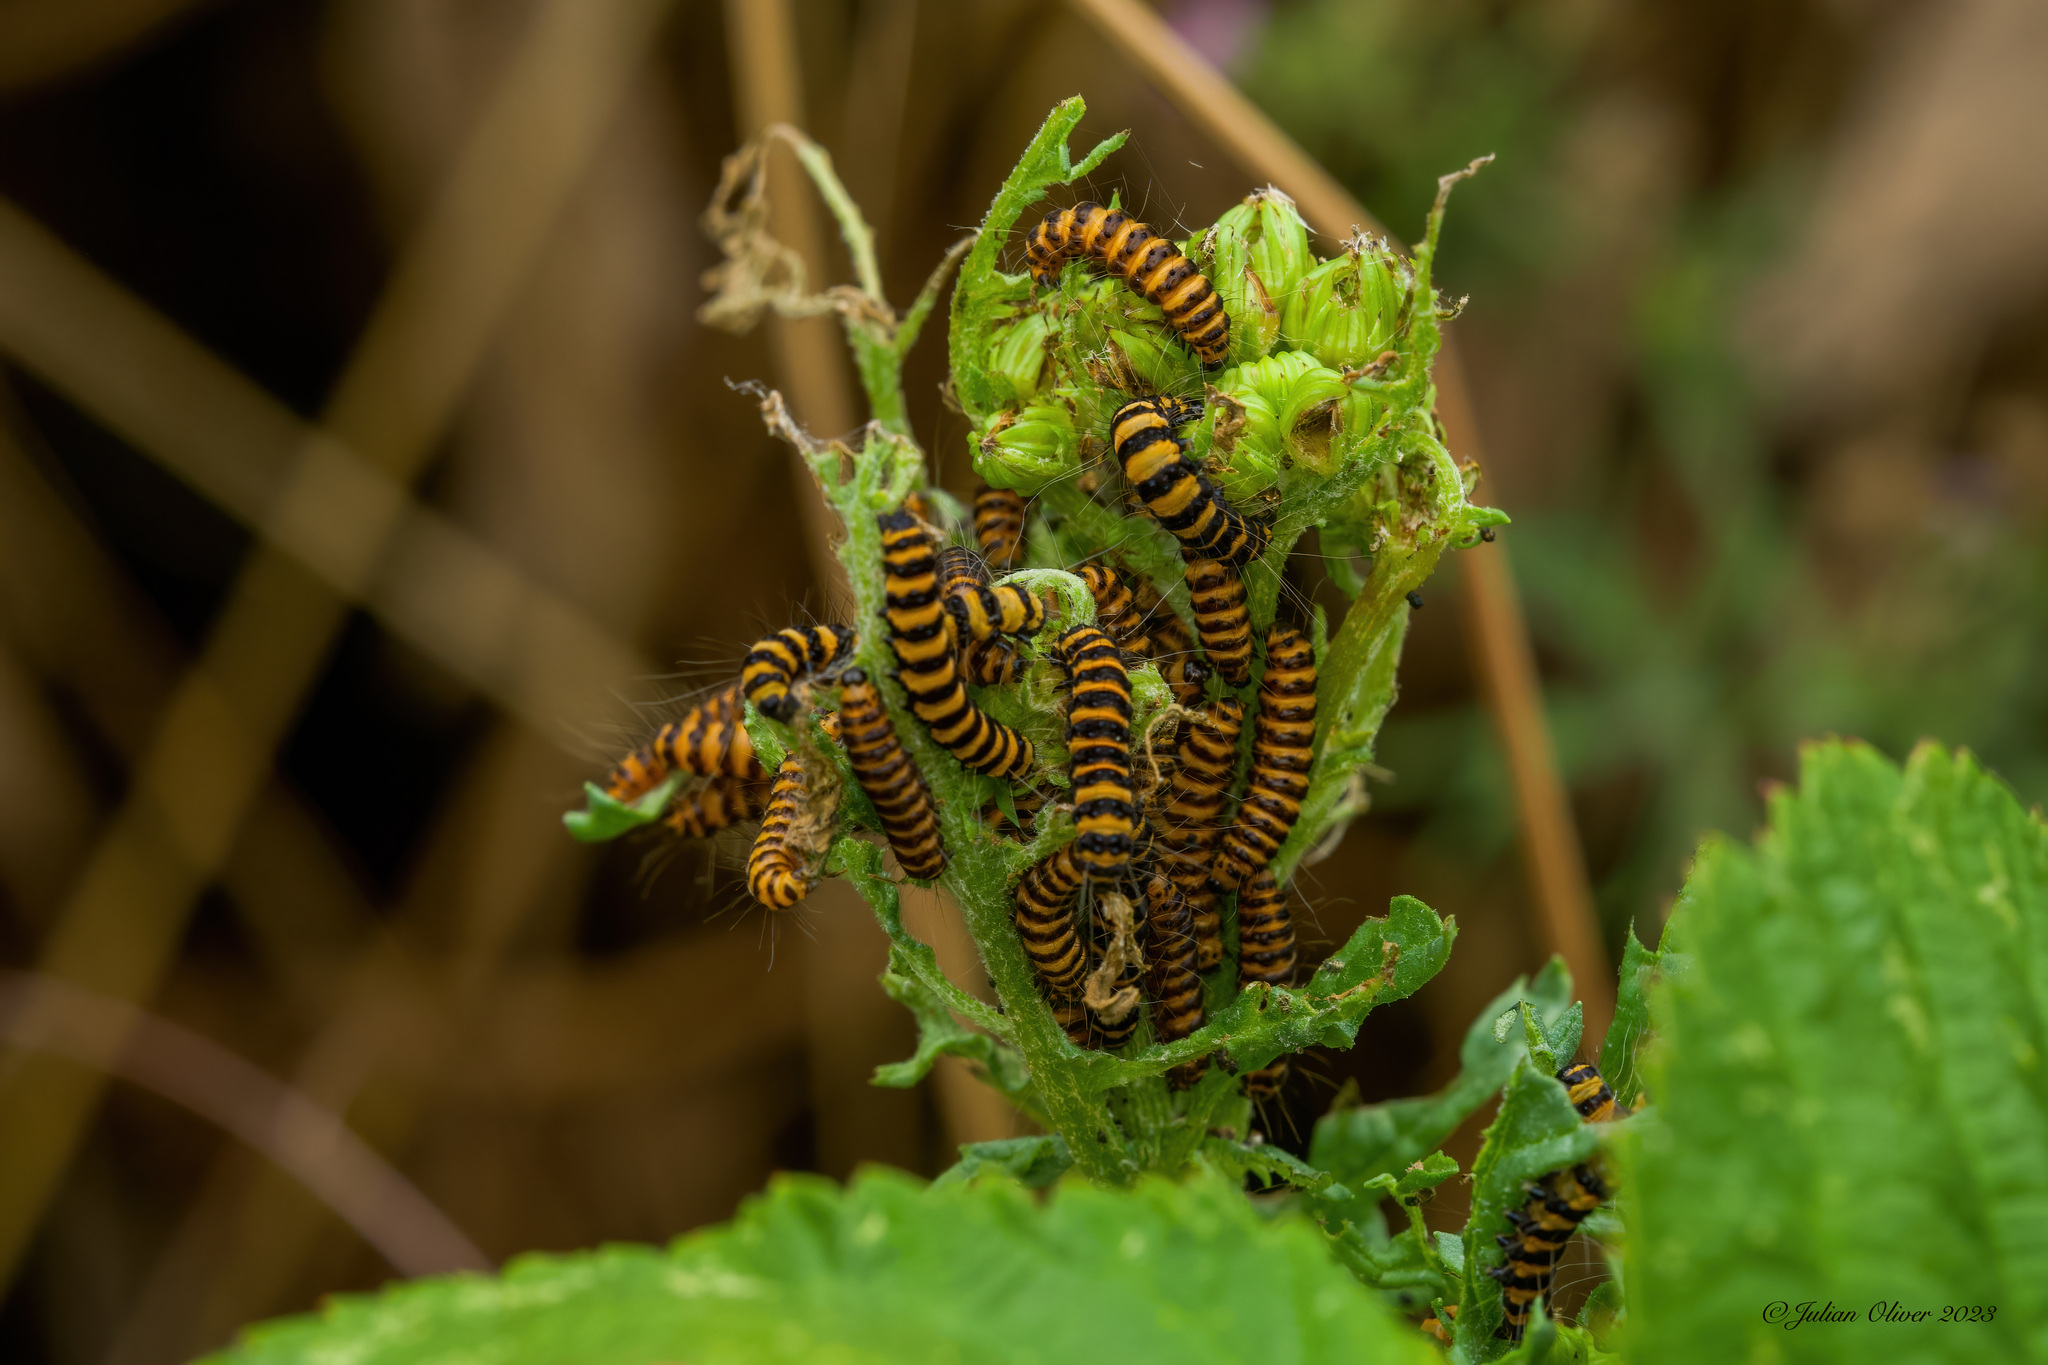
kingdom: Animalia
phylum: Arthropoda
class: Insecta
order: Lepidoptera
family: Erebidae
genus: Tyria
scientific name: Tyria jacobaeae
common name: Cinnabar
